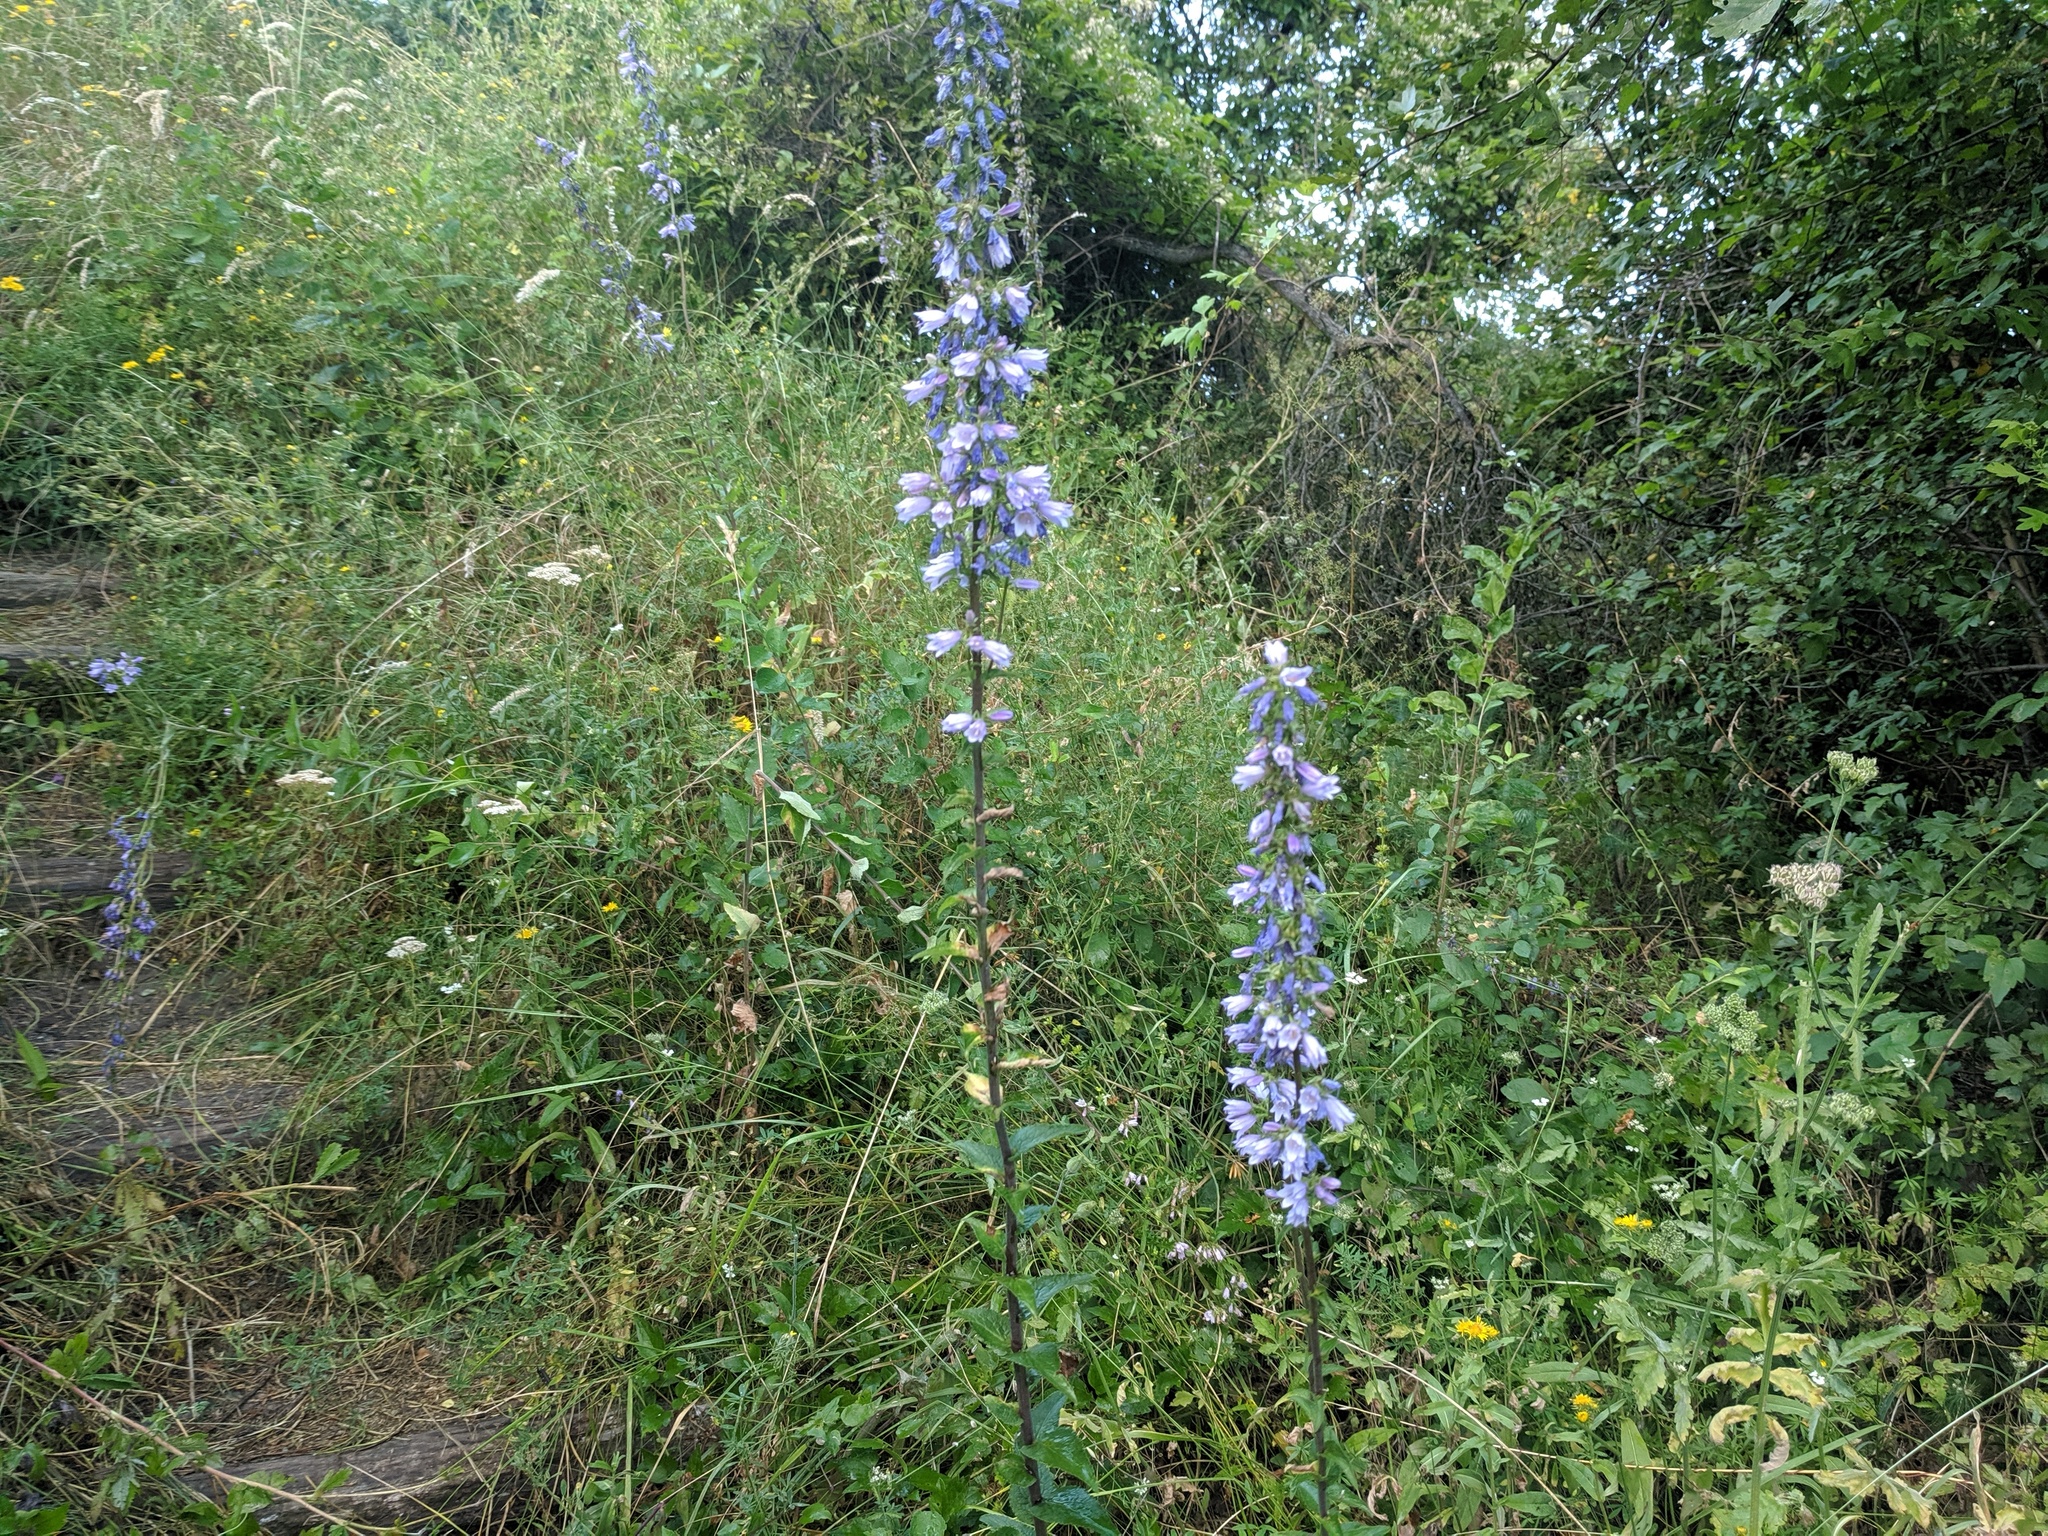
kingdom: Plantae
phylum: Tracheophyta
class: Magnoliopsida
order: Asterales
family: Campanulaceae
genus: Campanula
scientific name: Campanula bononiensis
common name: Pale bellflower
